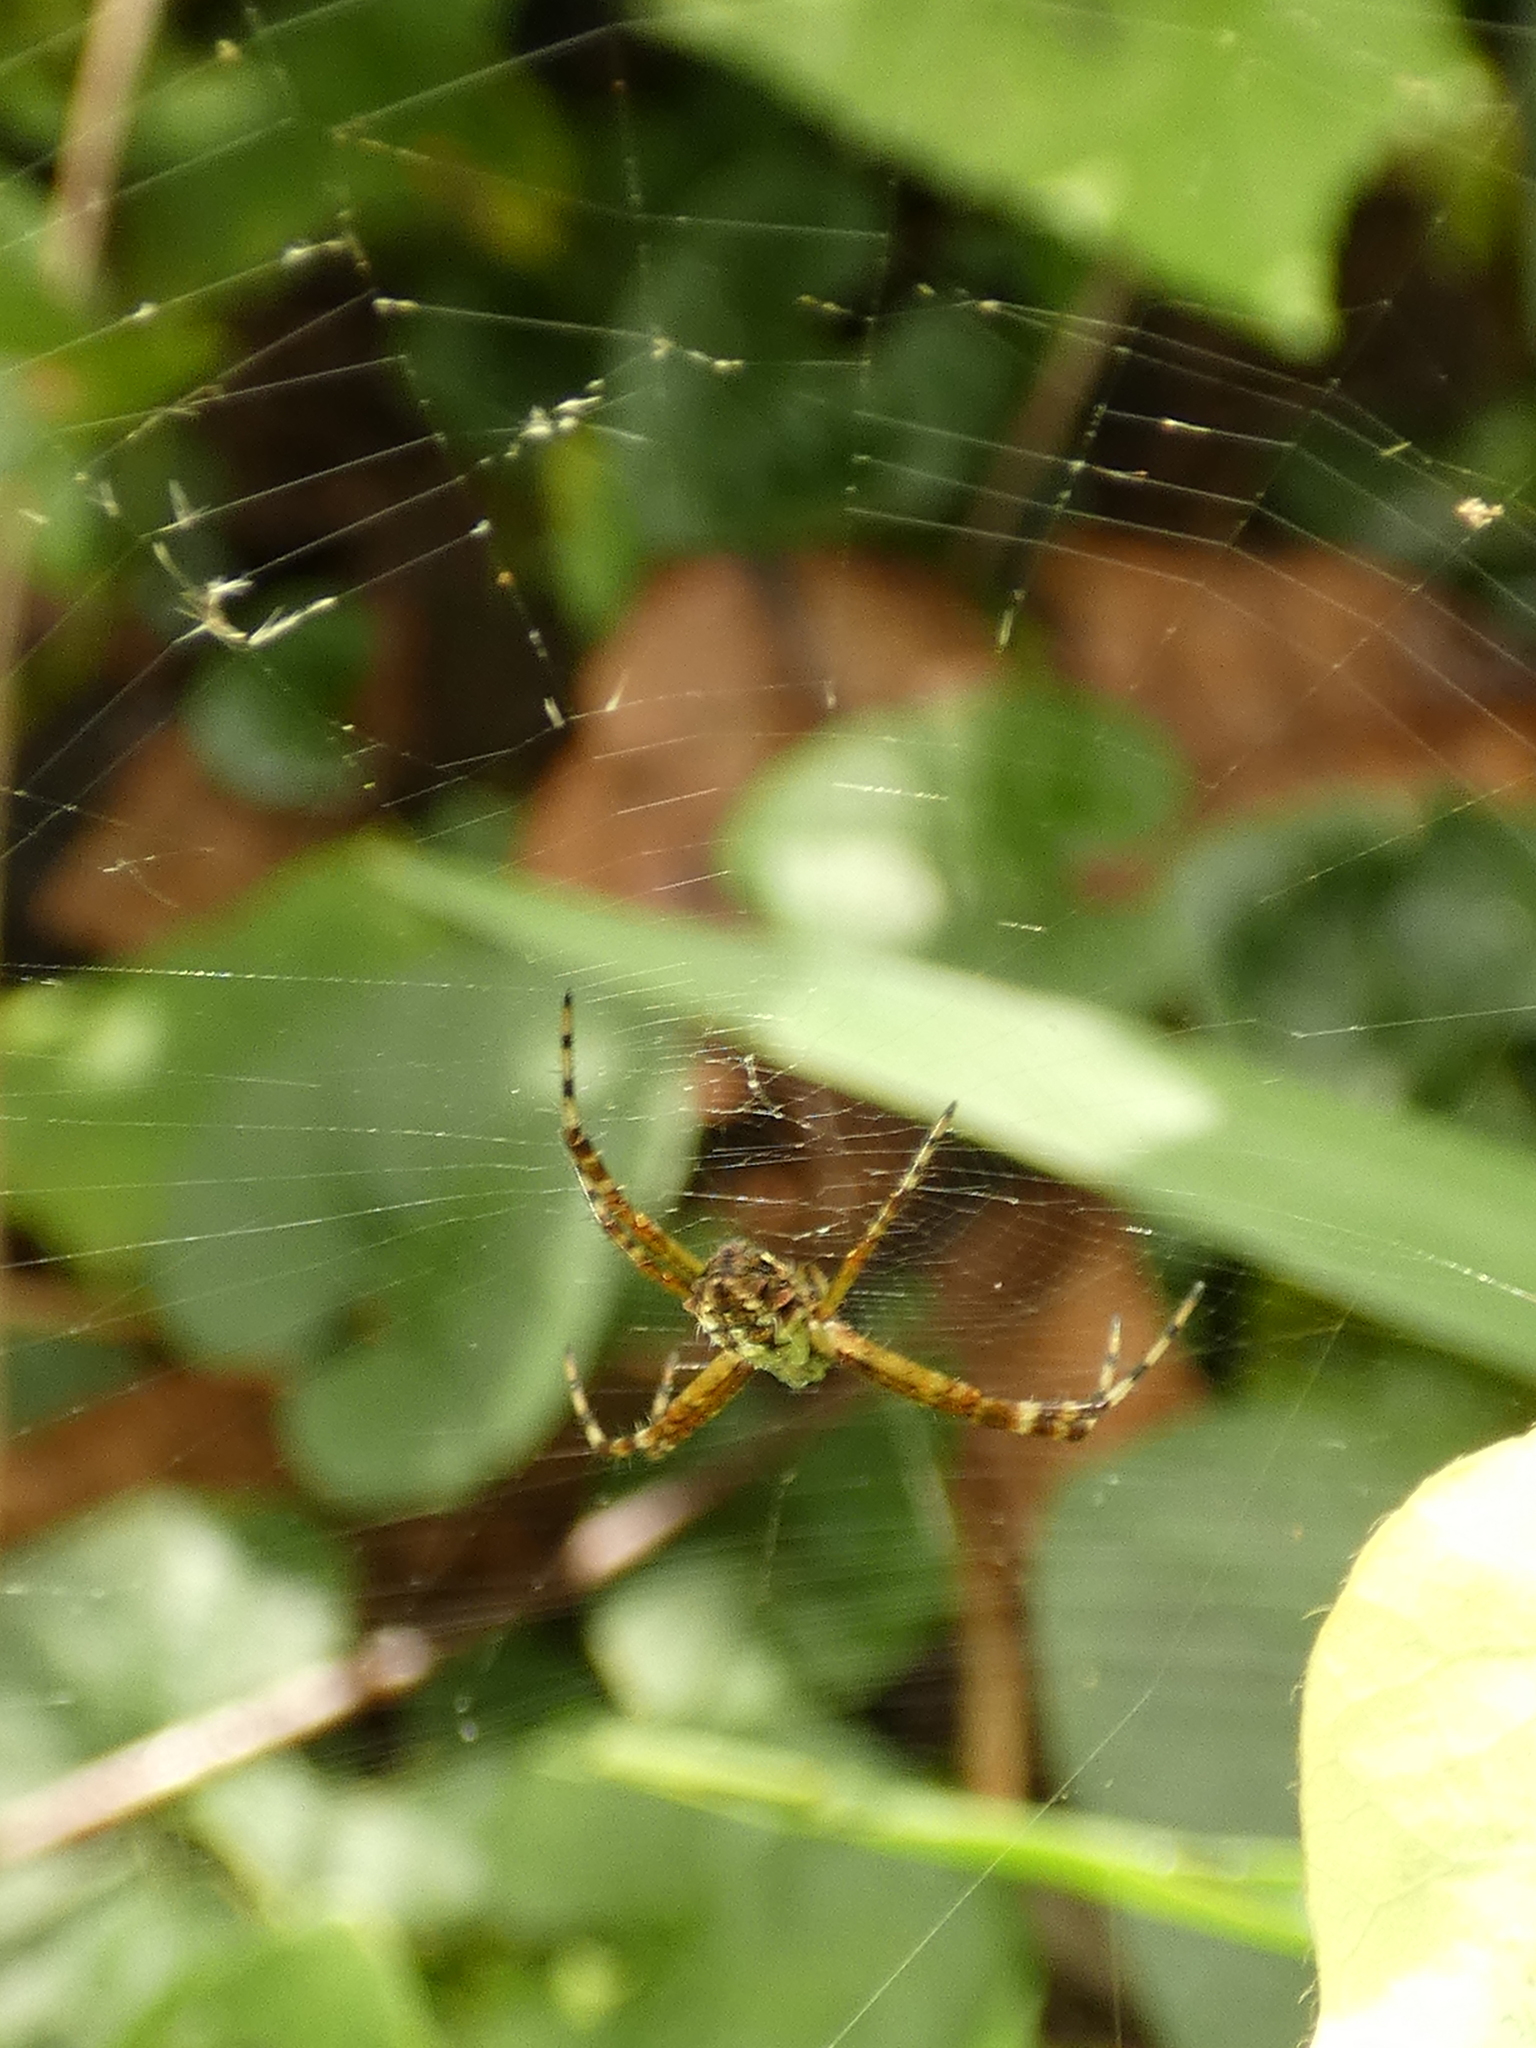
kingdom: Animalia
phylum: Arthropoda
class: Arachnida
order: Araneae
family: Araneidae
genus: Argiope
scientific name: Argiope argentata
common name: Orb weavers
